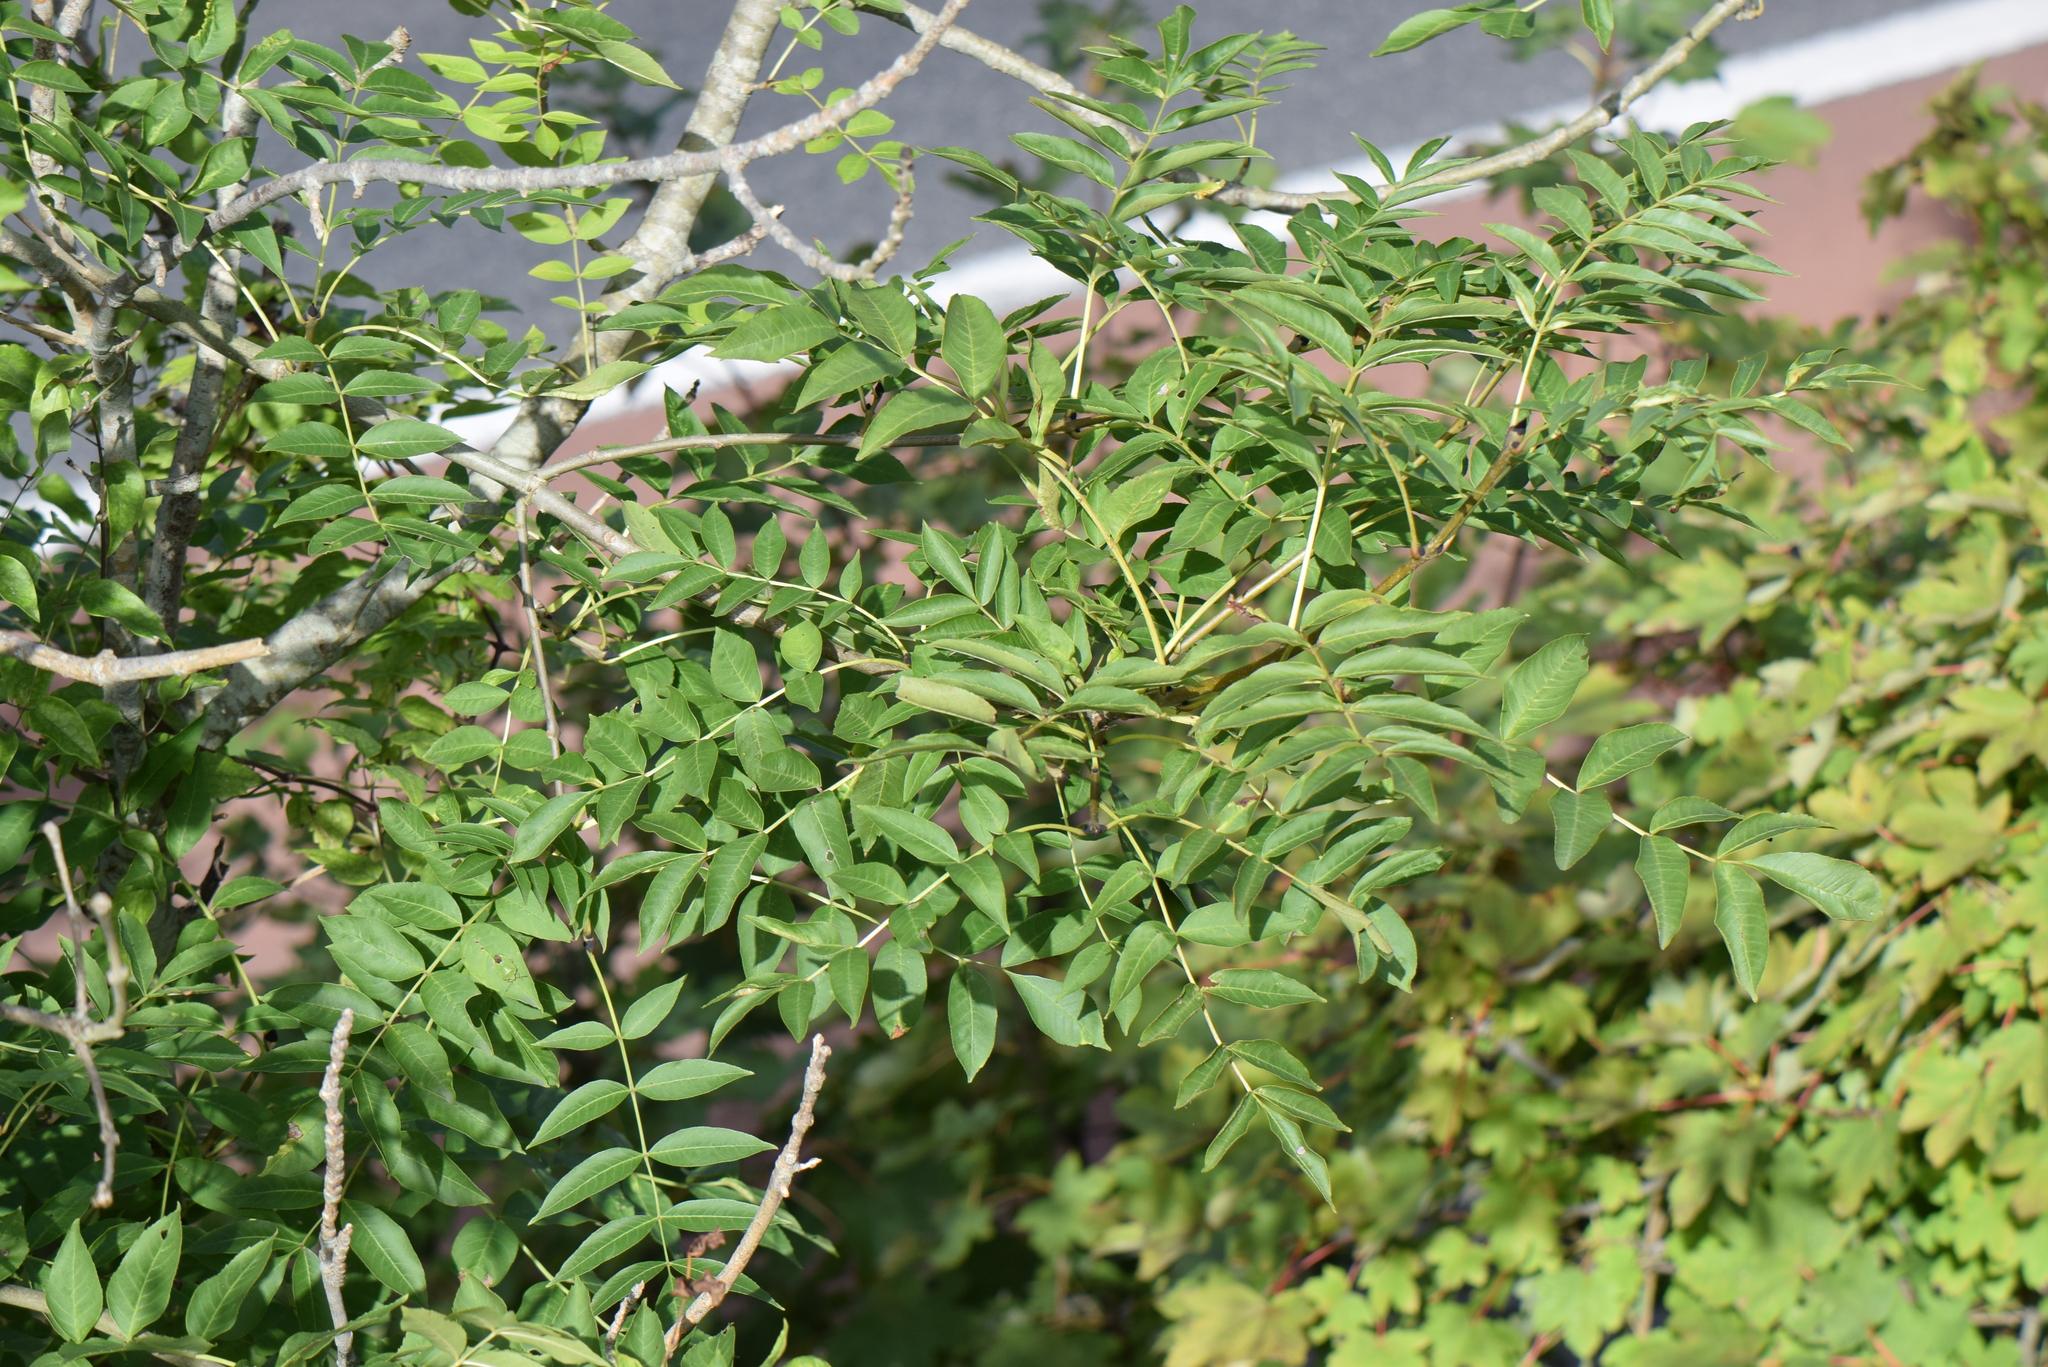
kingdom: Plantae
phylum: Tracheophyta
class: Magnoliopsida
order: Lamiales
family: Oleaceae
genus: Fraxinus
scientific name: Fraxinus excelsior
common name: European ash
